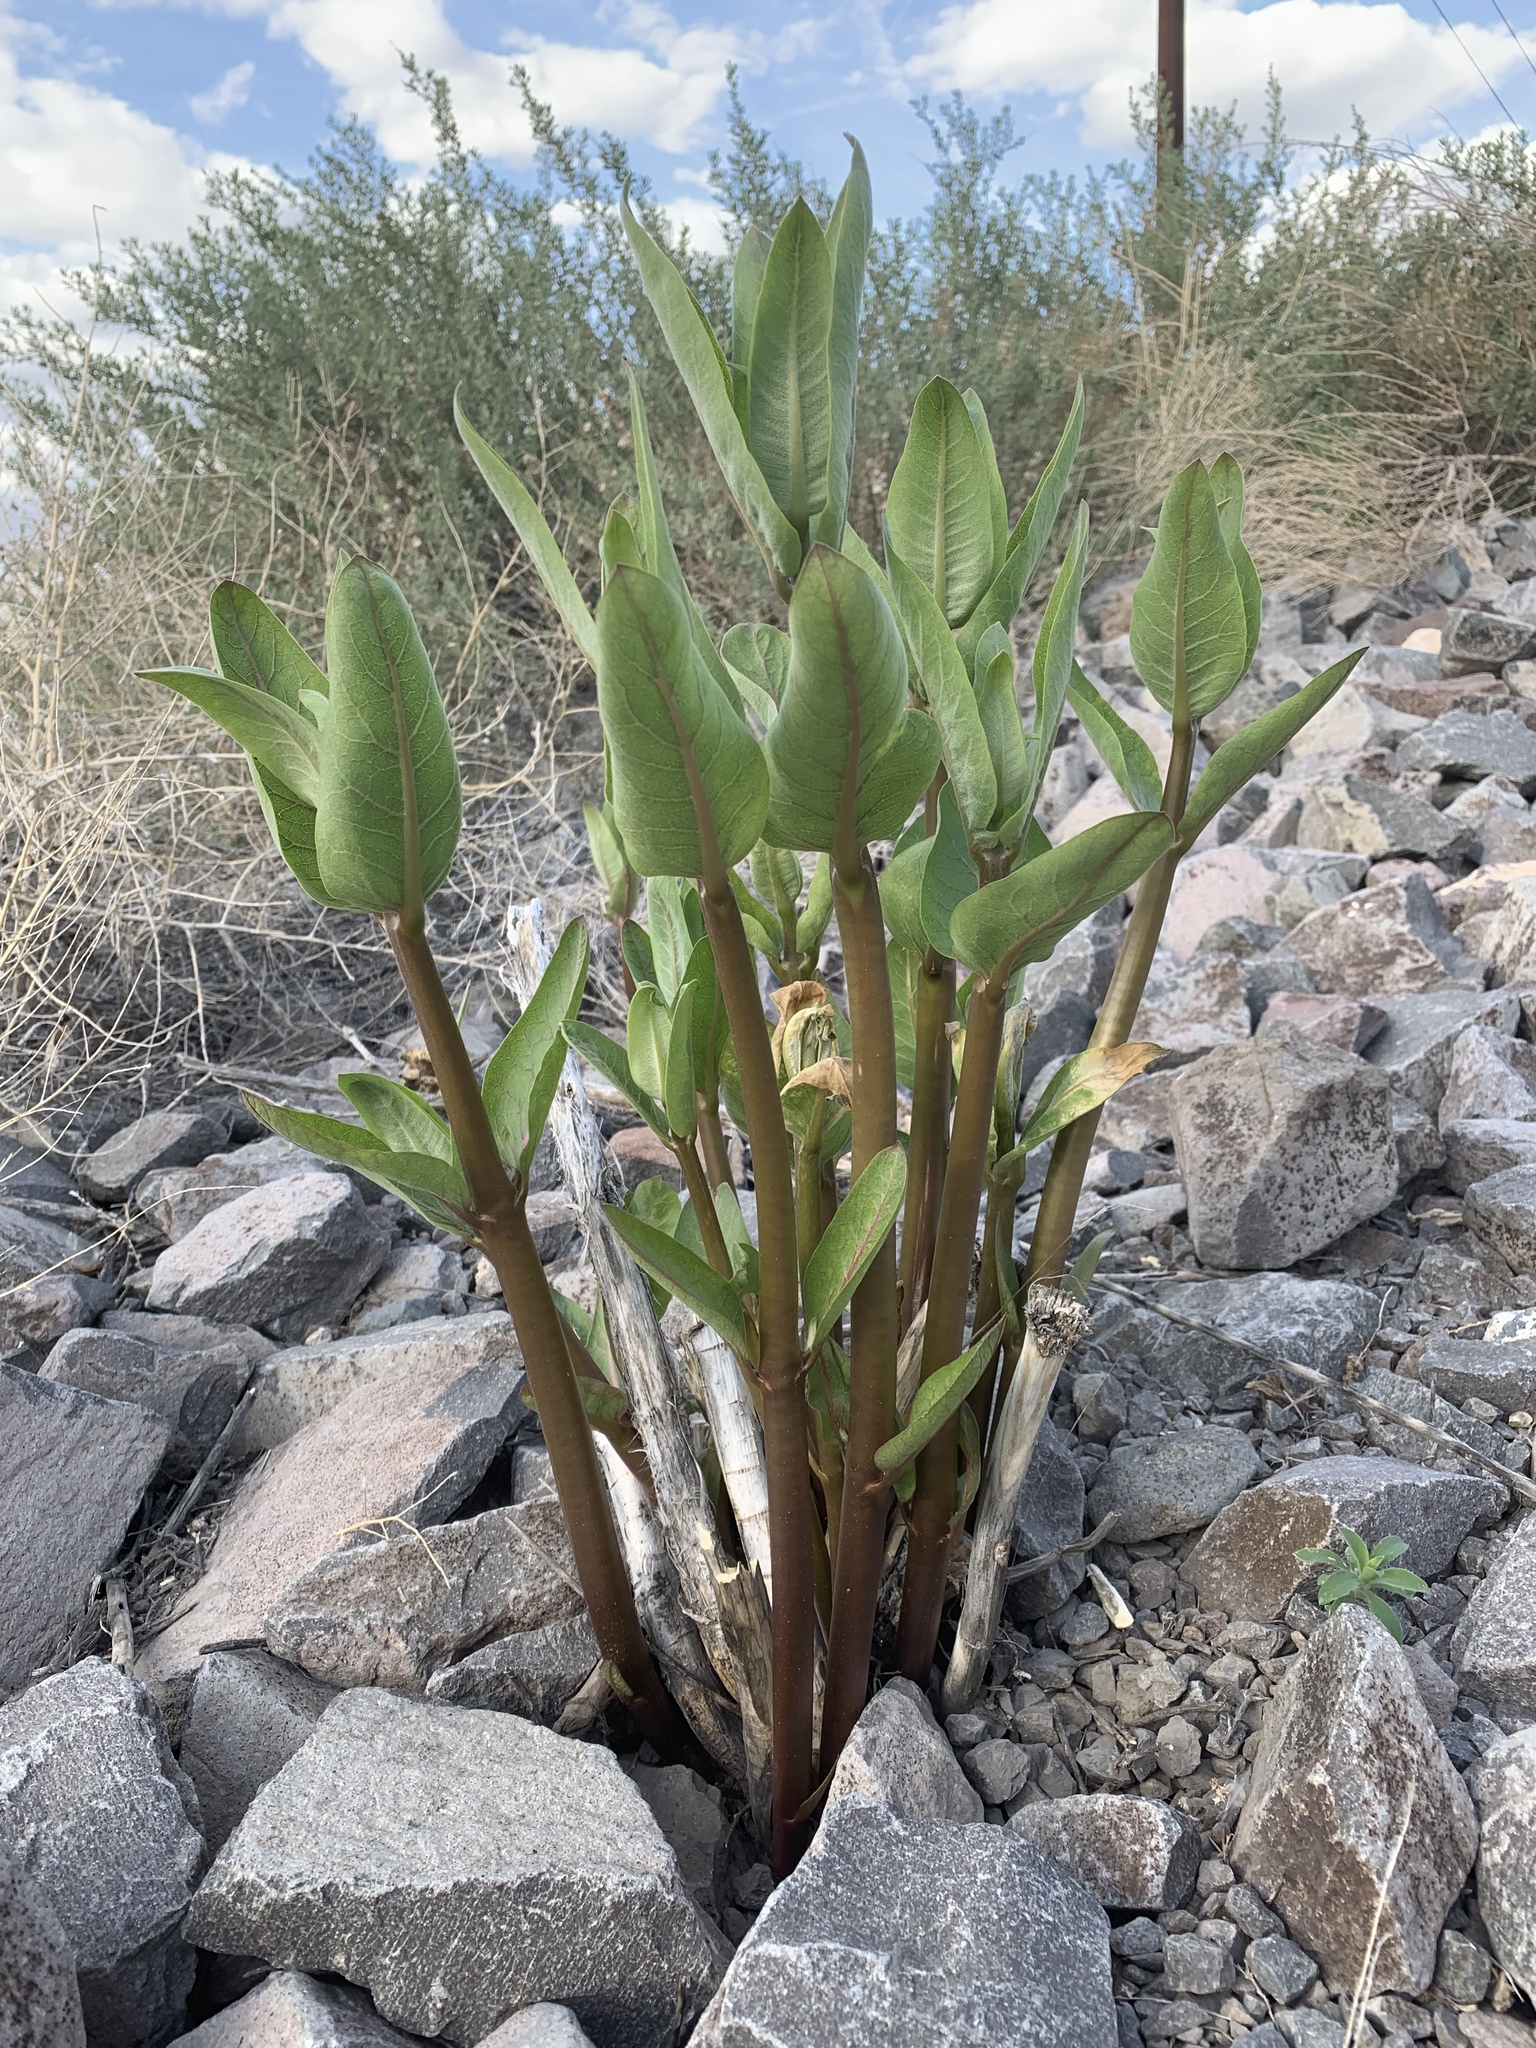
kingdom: Plantae
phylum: Tracheophyta
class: Magnoliopsida
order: Gentianales
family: Apocynaceae
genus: Asclepias
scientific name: Asclepias speciosa
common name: Showy milkweed
